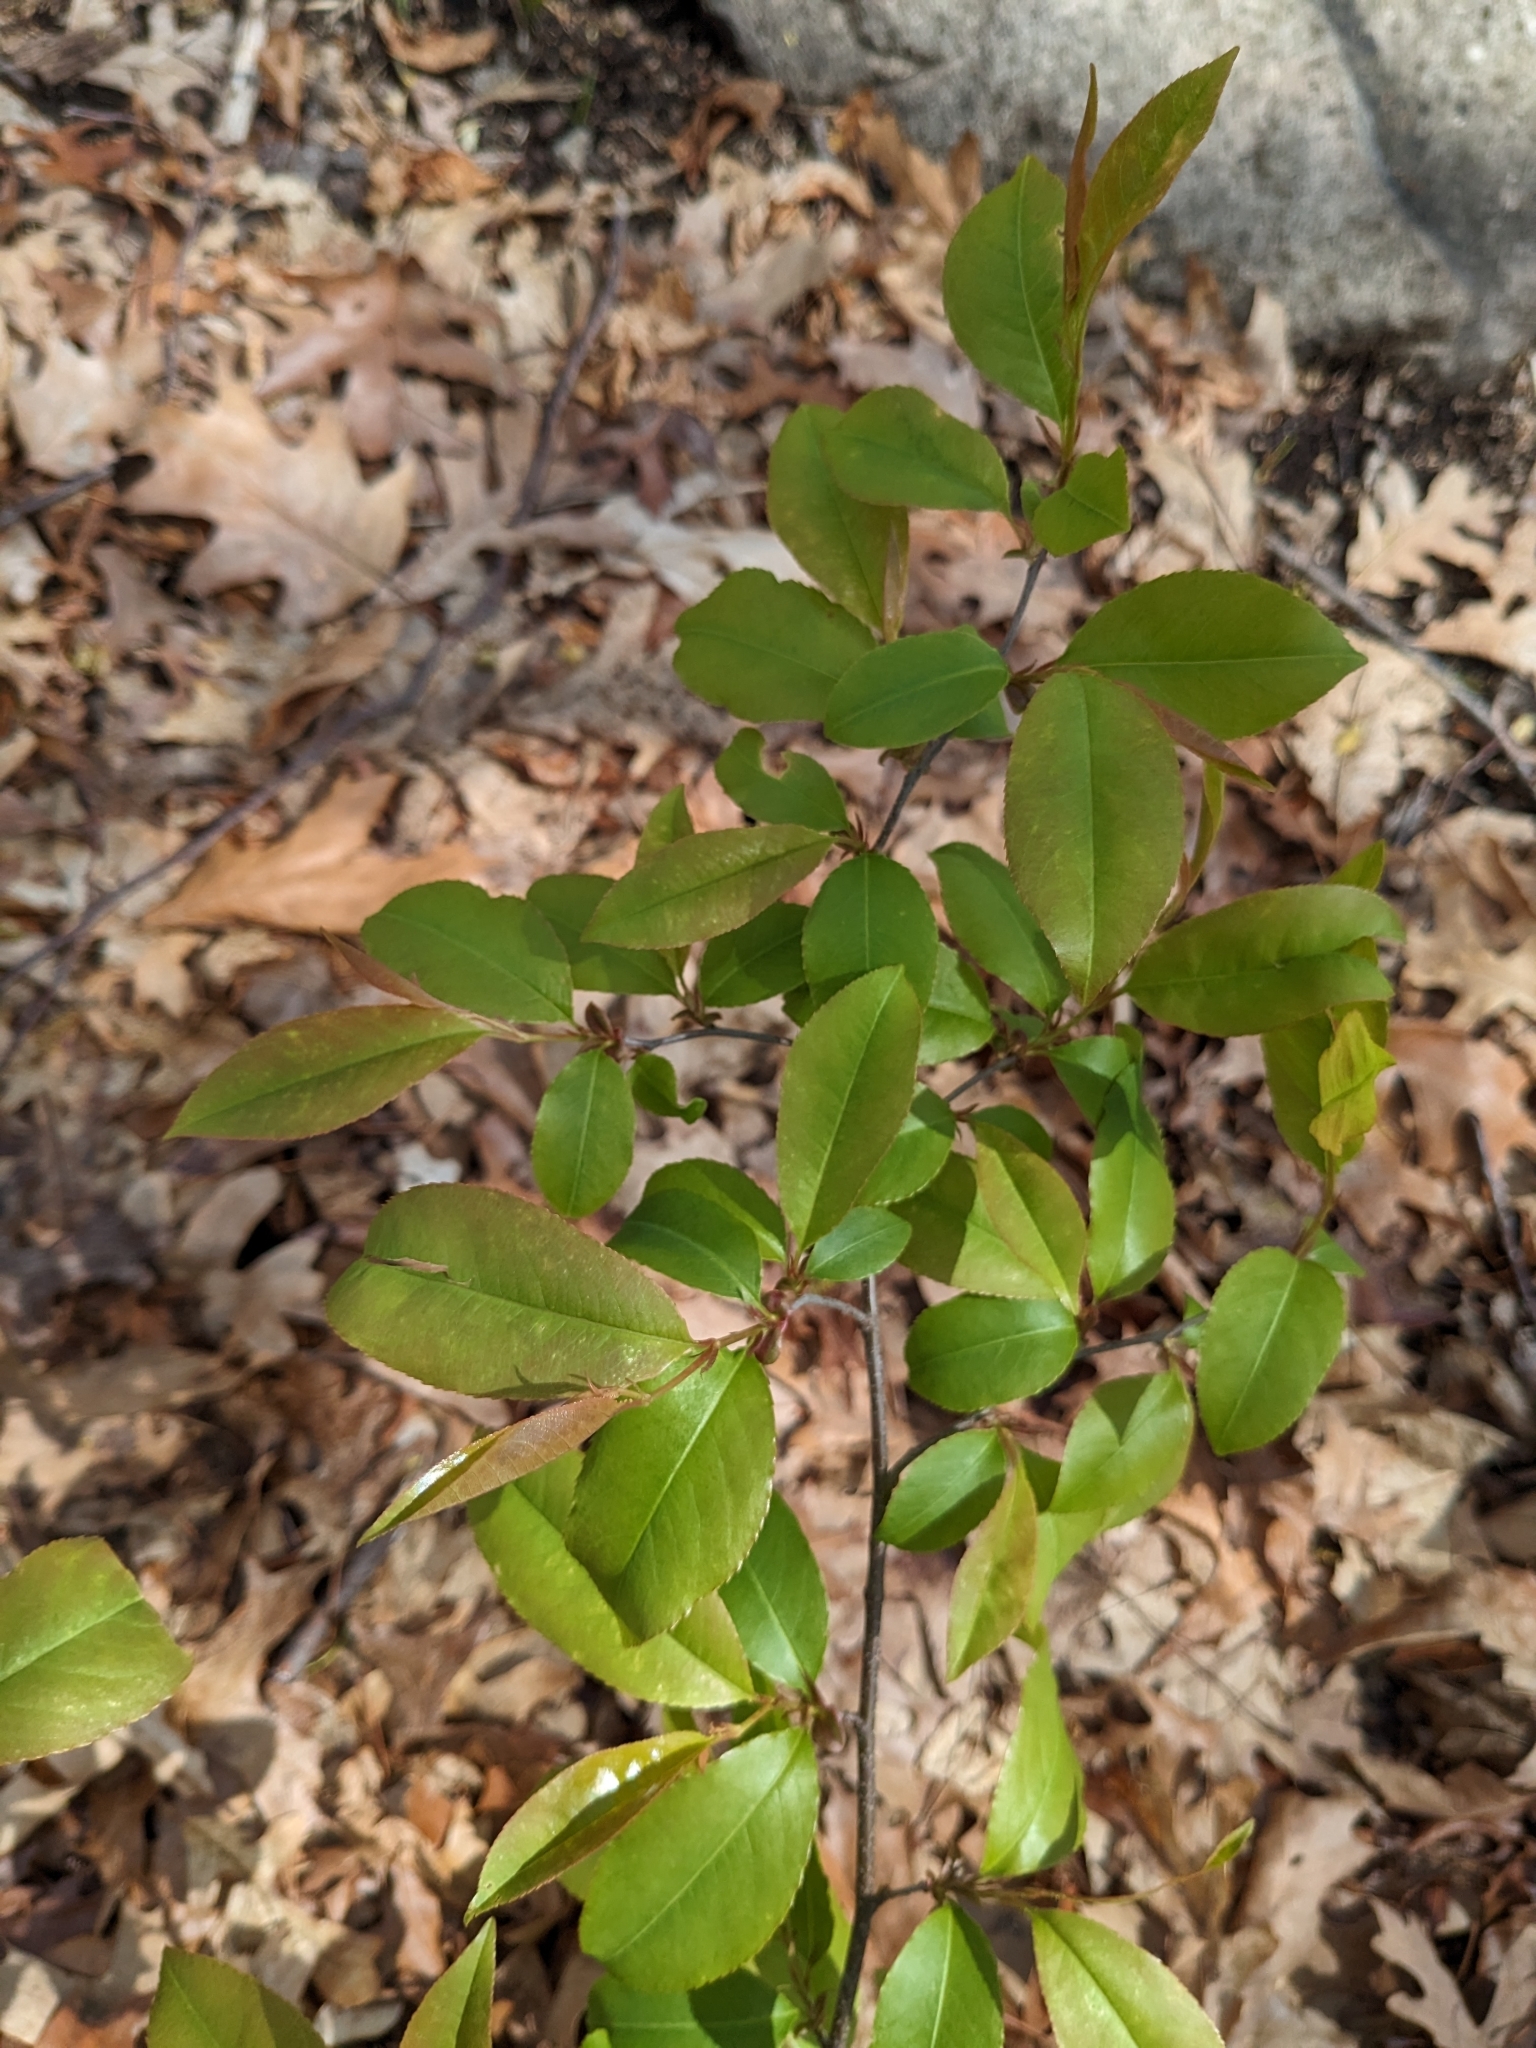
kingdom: Plantae
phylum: Tracheophyta
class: Magnoliopsida
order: Rosales
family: Rosaceae
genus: Prunus
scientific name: Prunus serotina
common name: Black cherry
